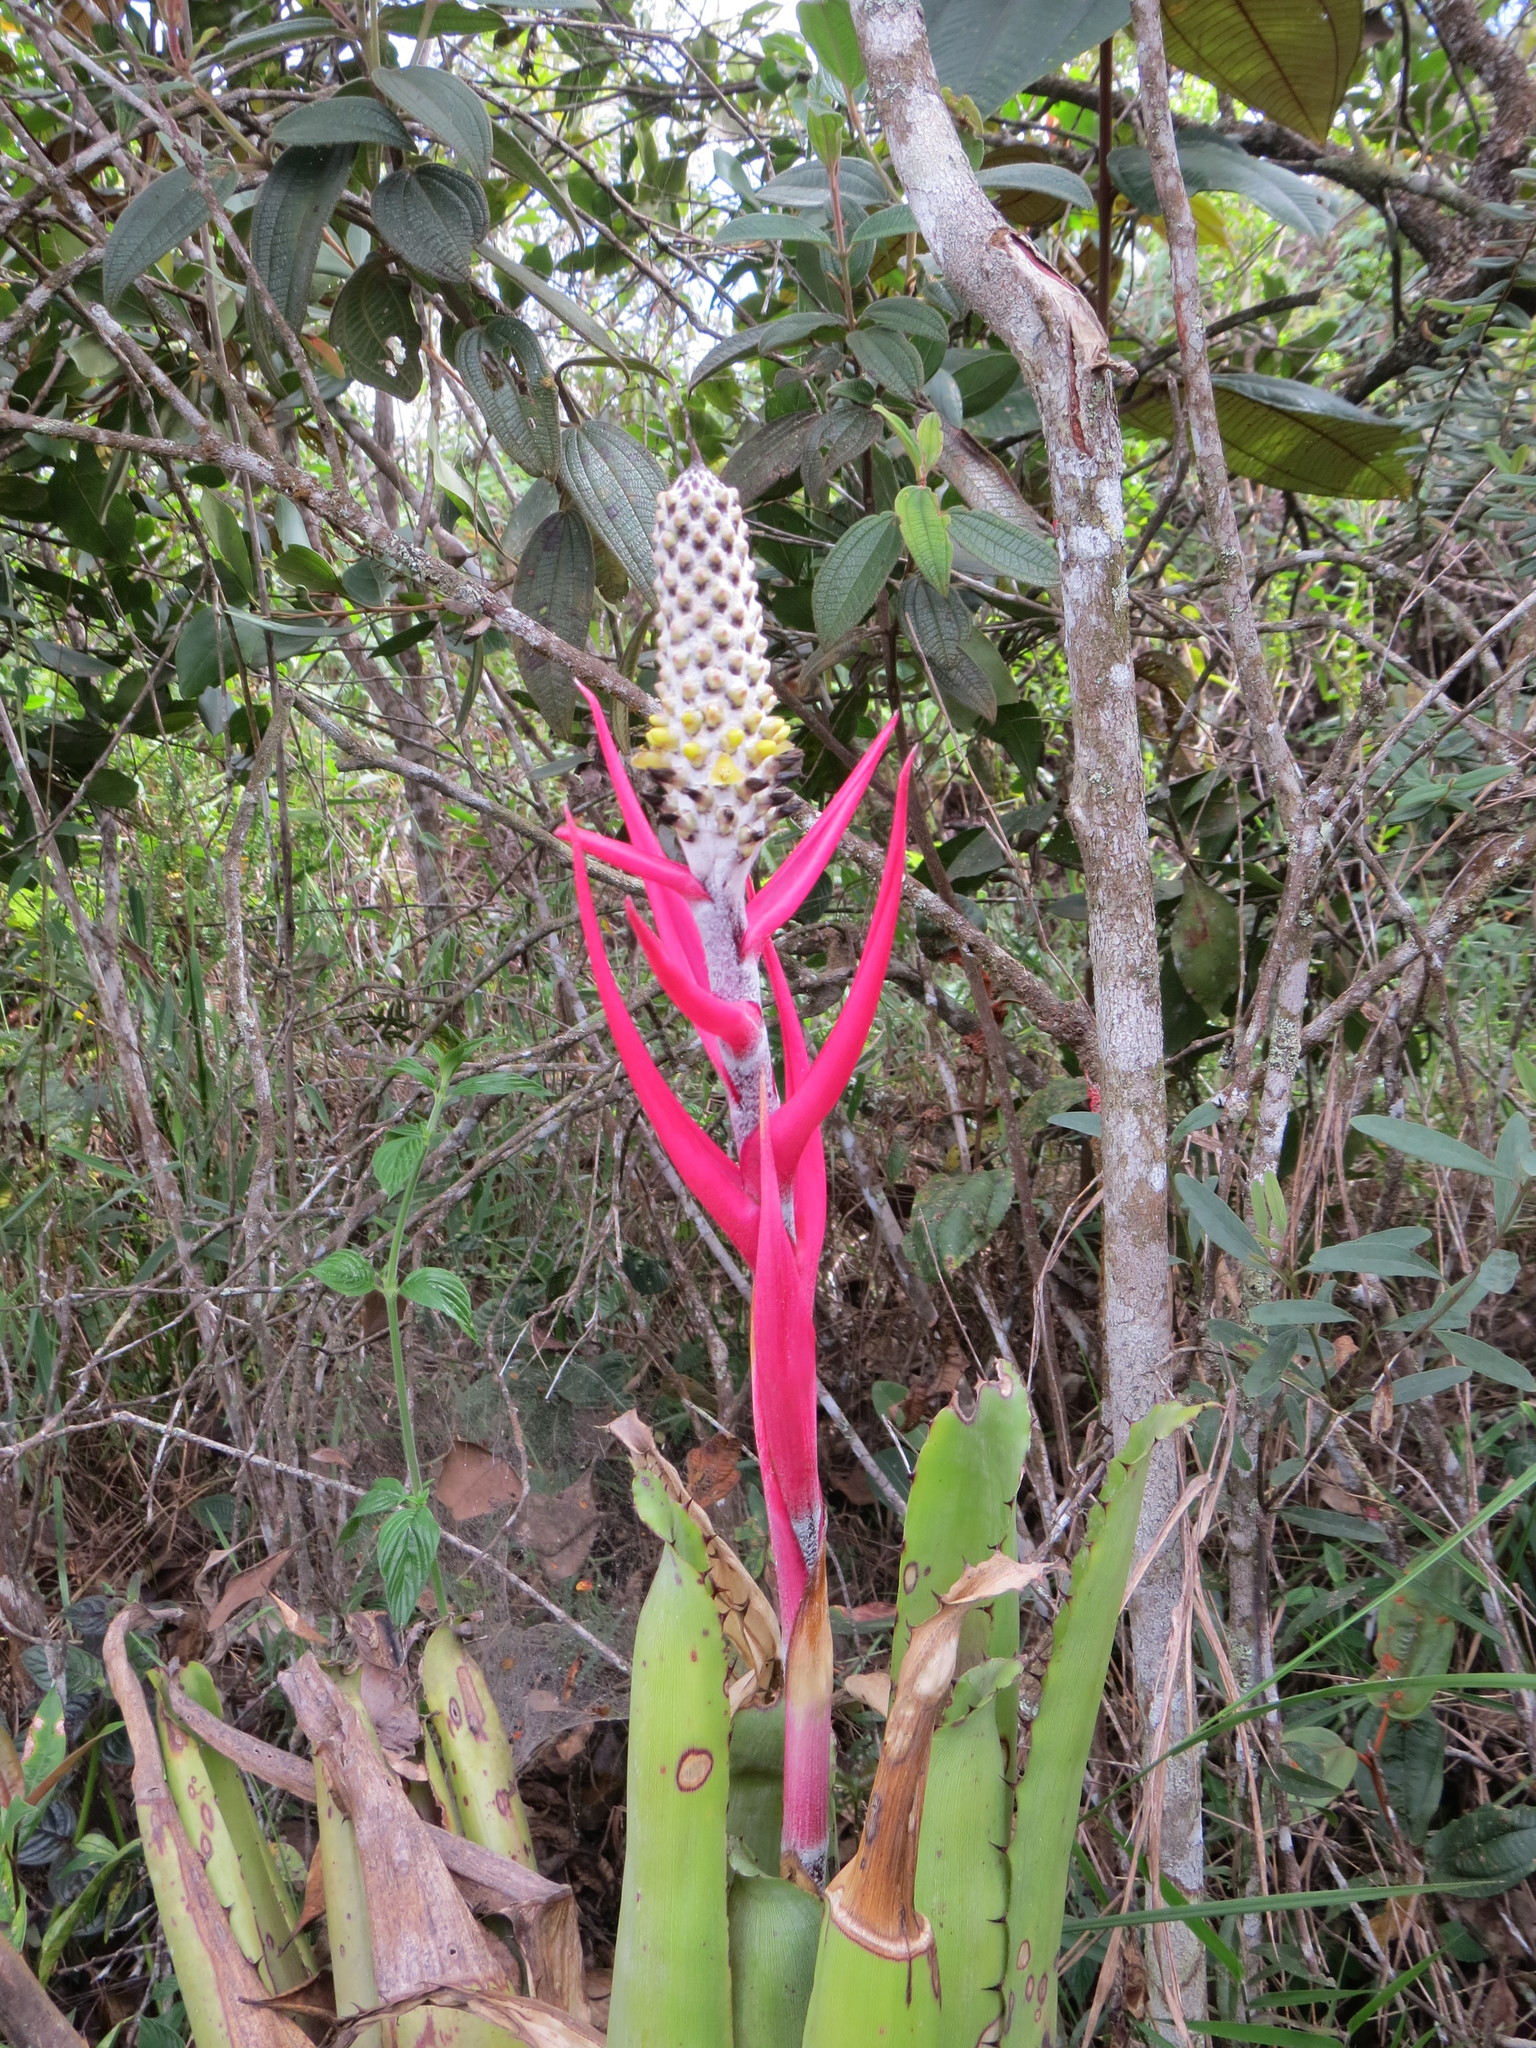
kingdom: Plantae
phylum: Tracheophyta
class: Liliopsida
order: Poales
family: Bromeliaceae
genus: Aechmea
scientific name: Aechmea bromeliifolia
